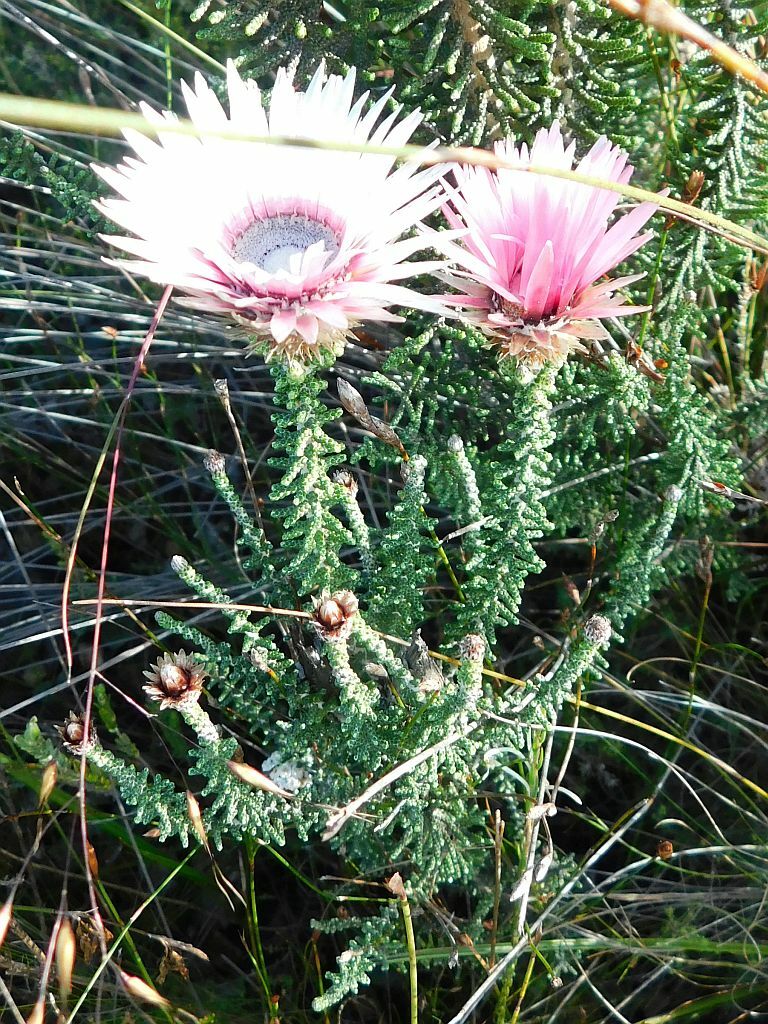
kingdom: Plantae
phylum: Tracheophyta
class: Magnoliopsida
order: Asterales
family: Asteraceae
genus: Phaenocoma
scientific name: Phaenocoma prolifera
